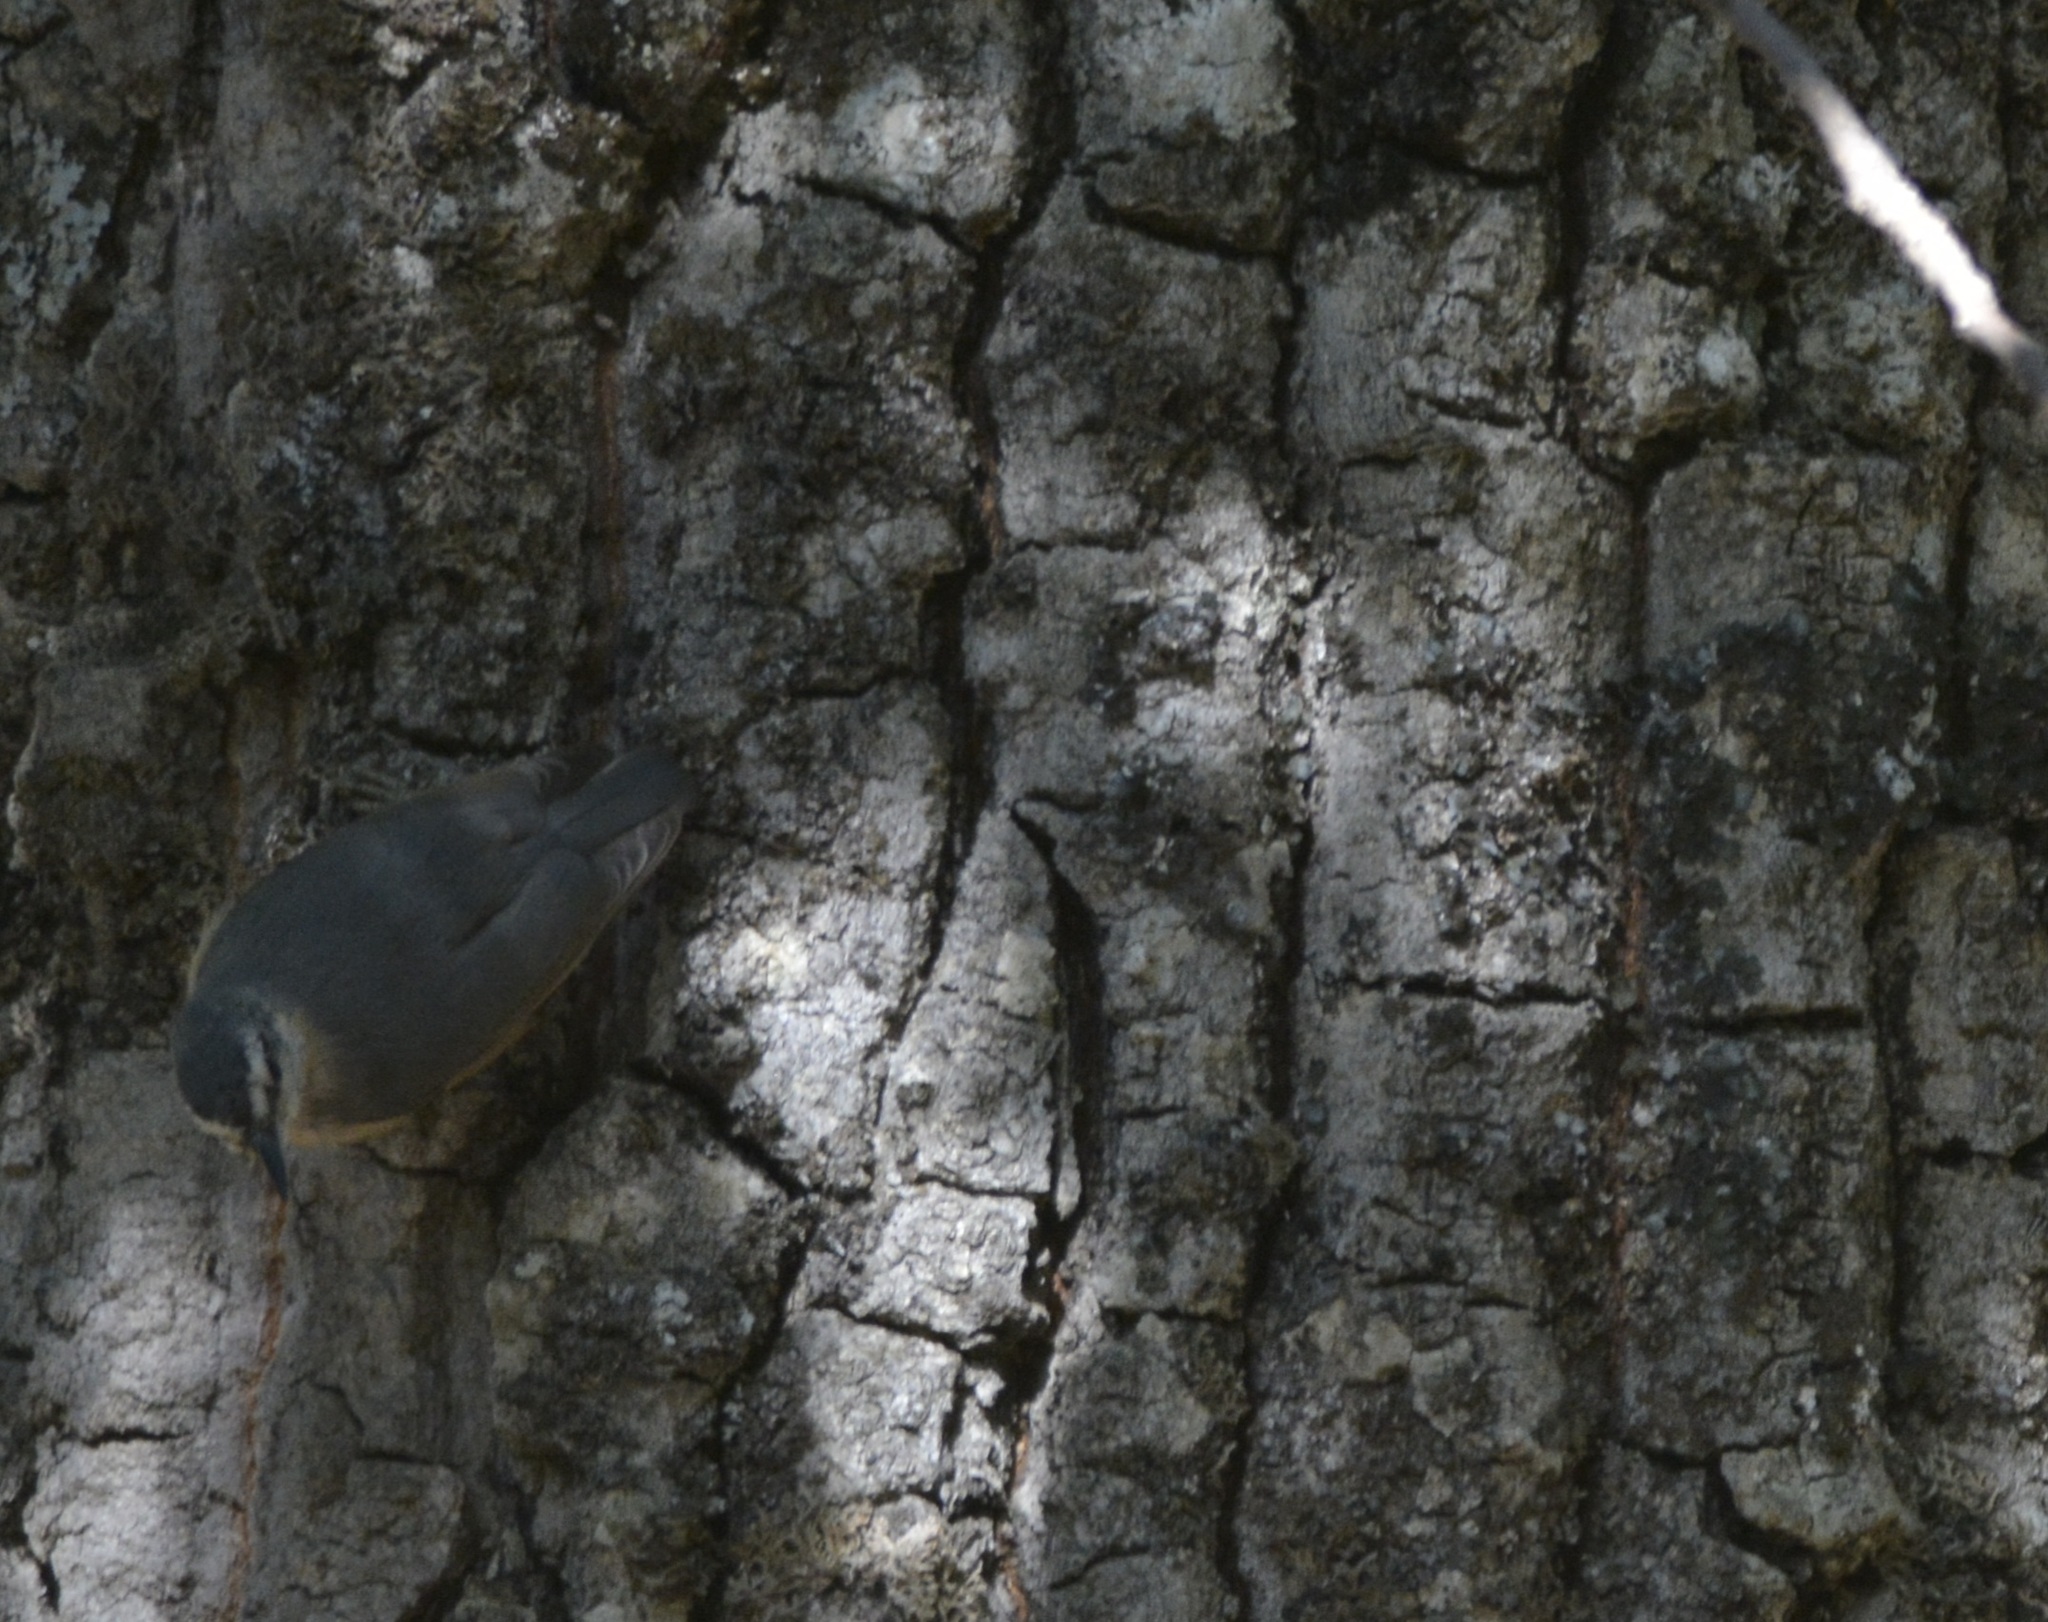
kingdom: Animalia
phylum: Chordata
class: Aves
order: Passeriformes
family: Sittidae
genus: Sitta
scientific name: Sitta ledanti
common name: Algerian nuthatch
